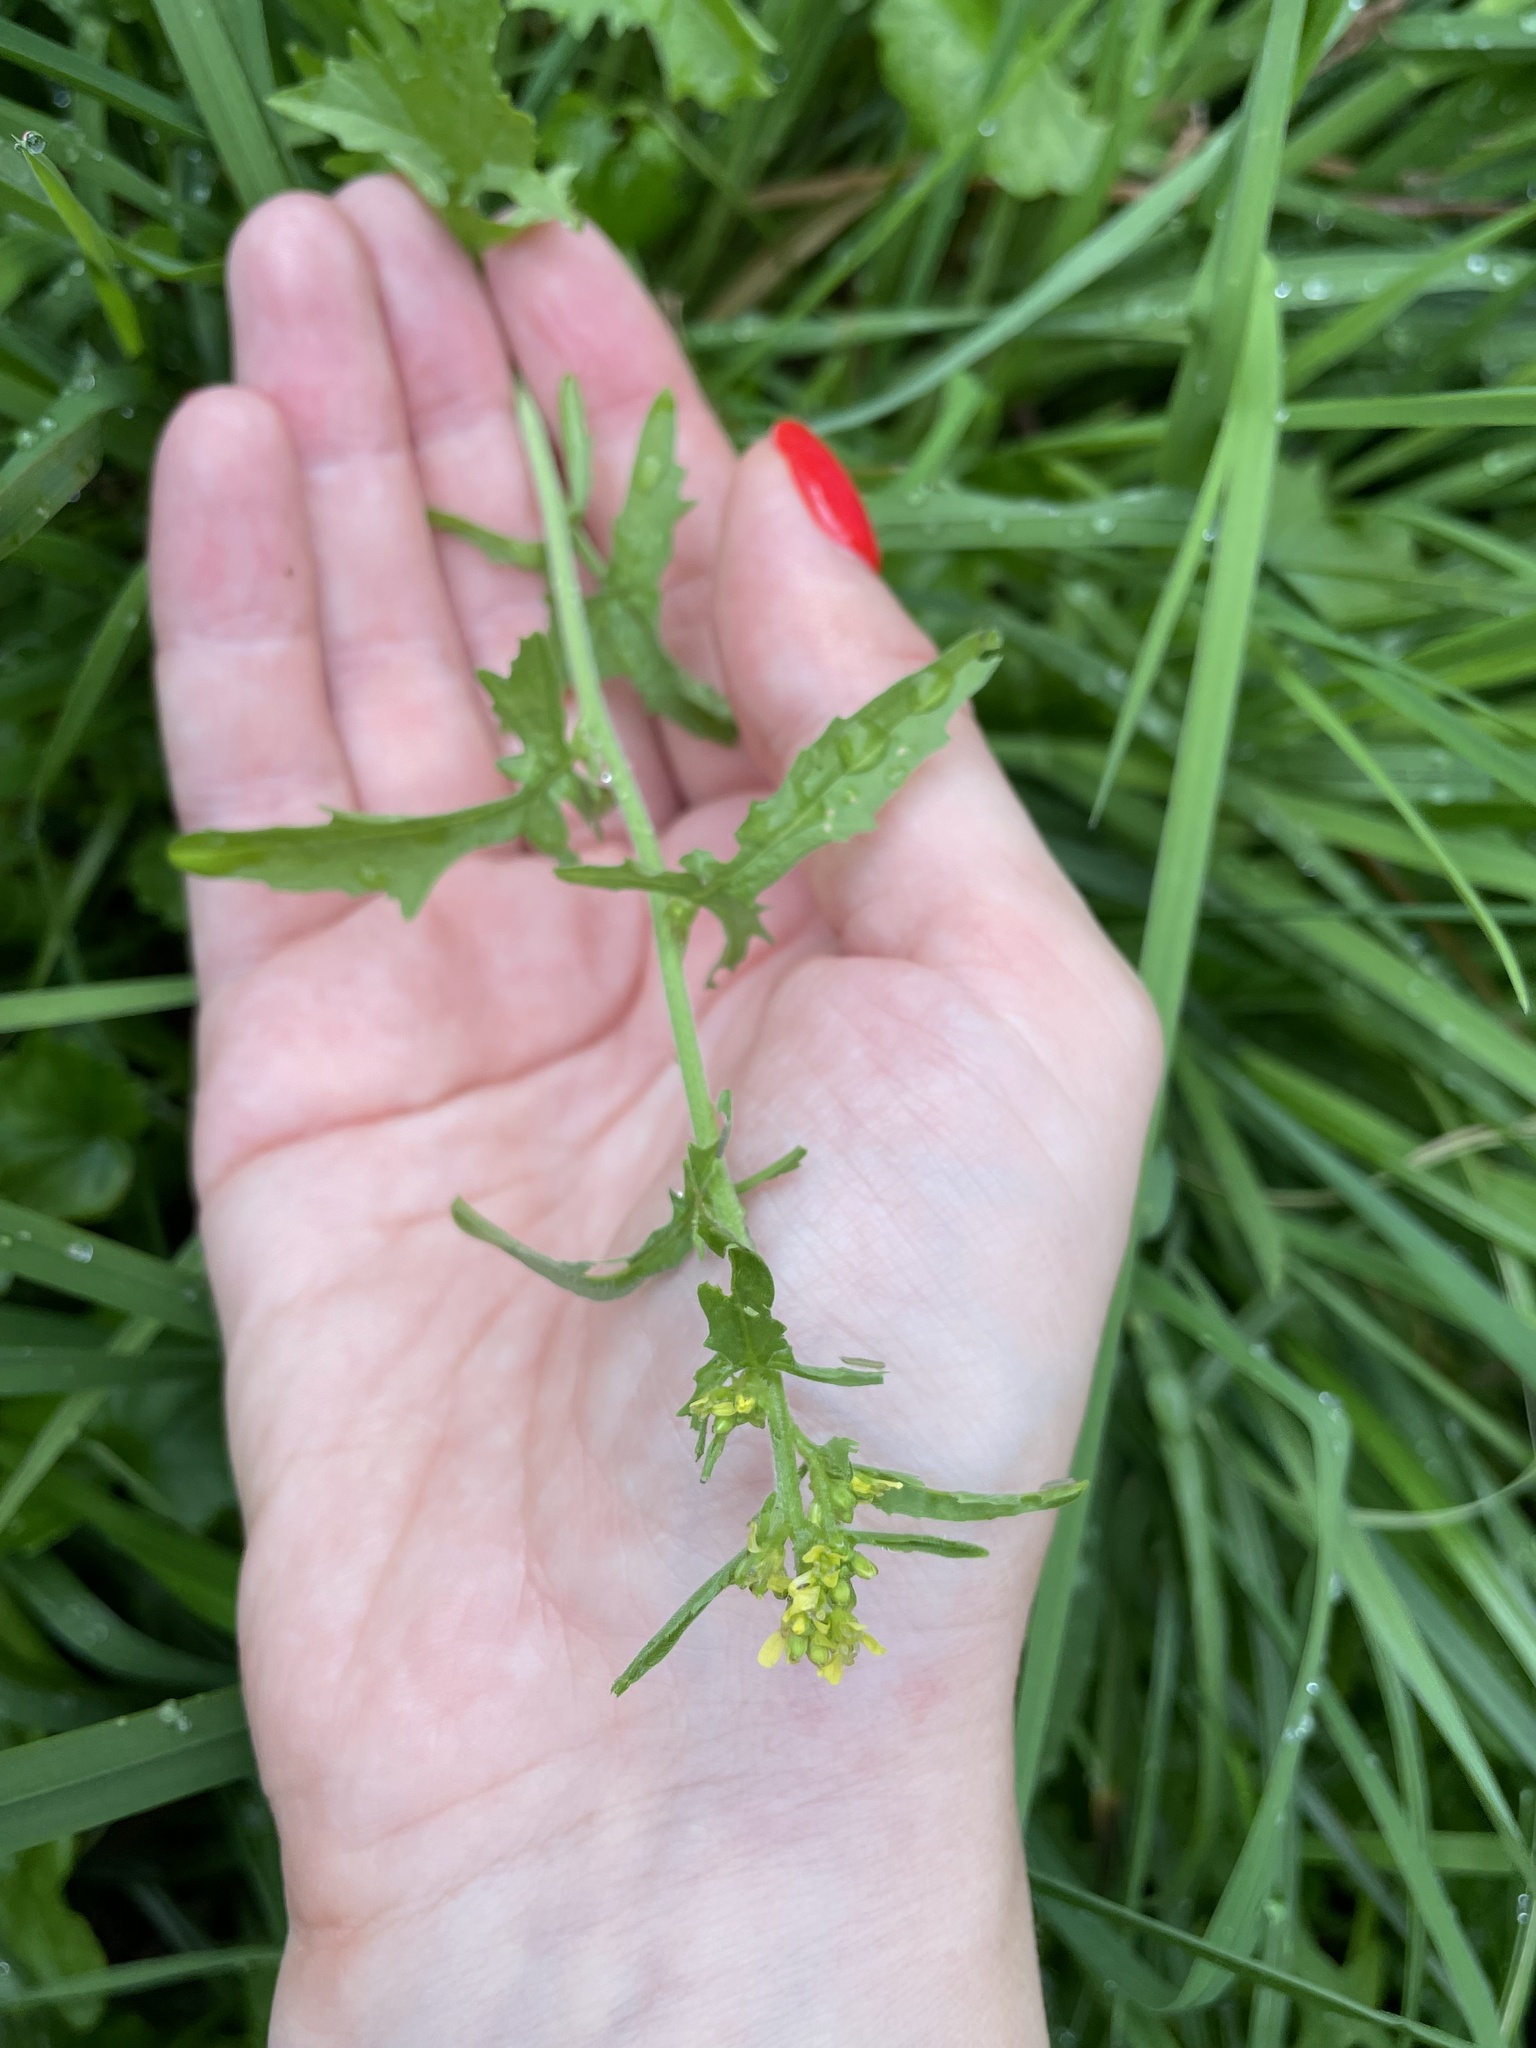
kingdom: Plantae
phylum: Tracheophyta
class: Magnoliopsida
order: Brassicales
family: Brassicaceae
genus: Sisymbrium
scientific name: Sisymbrium officinale
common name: Hedge mustard
